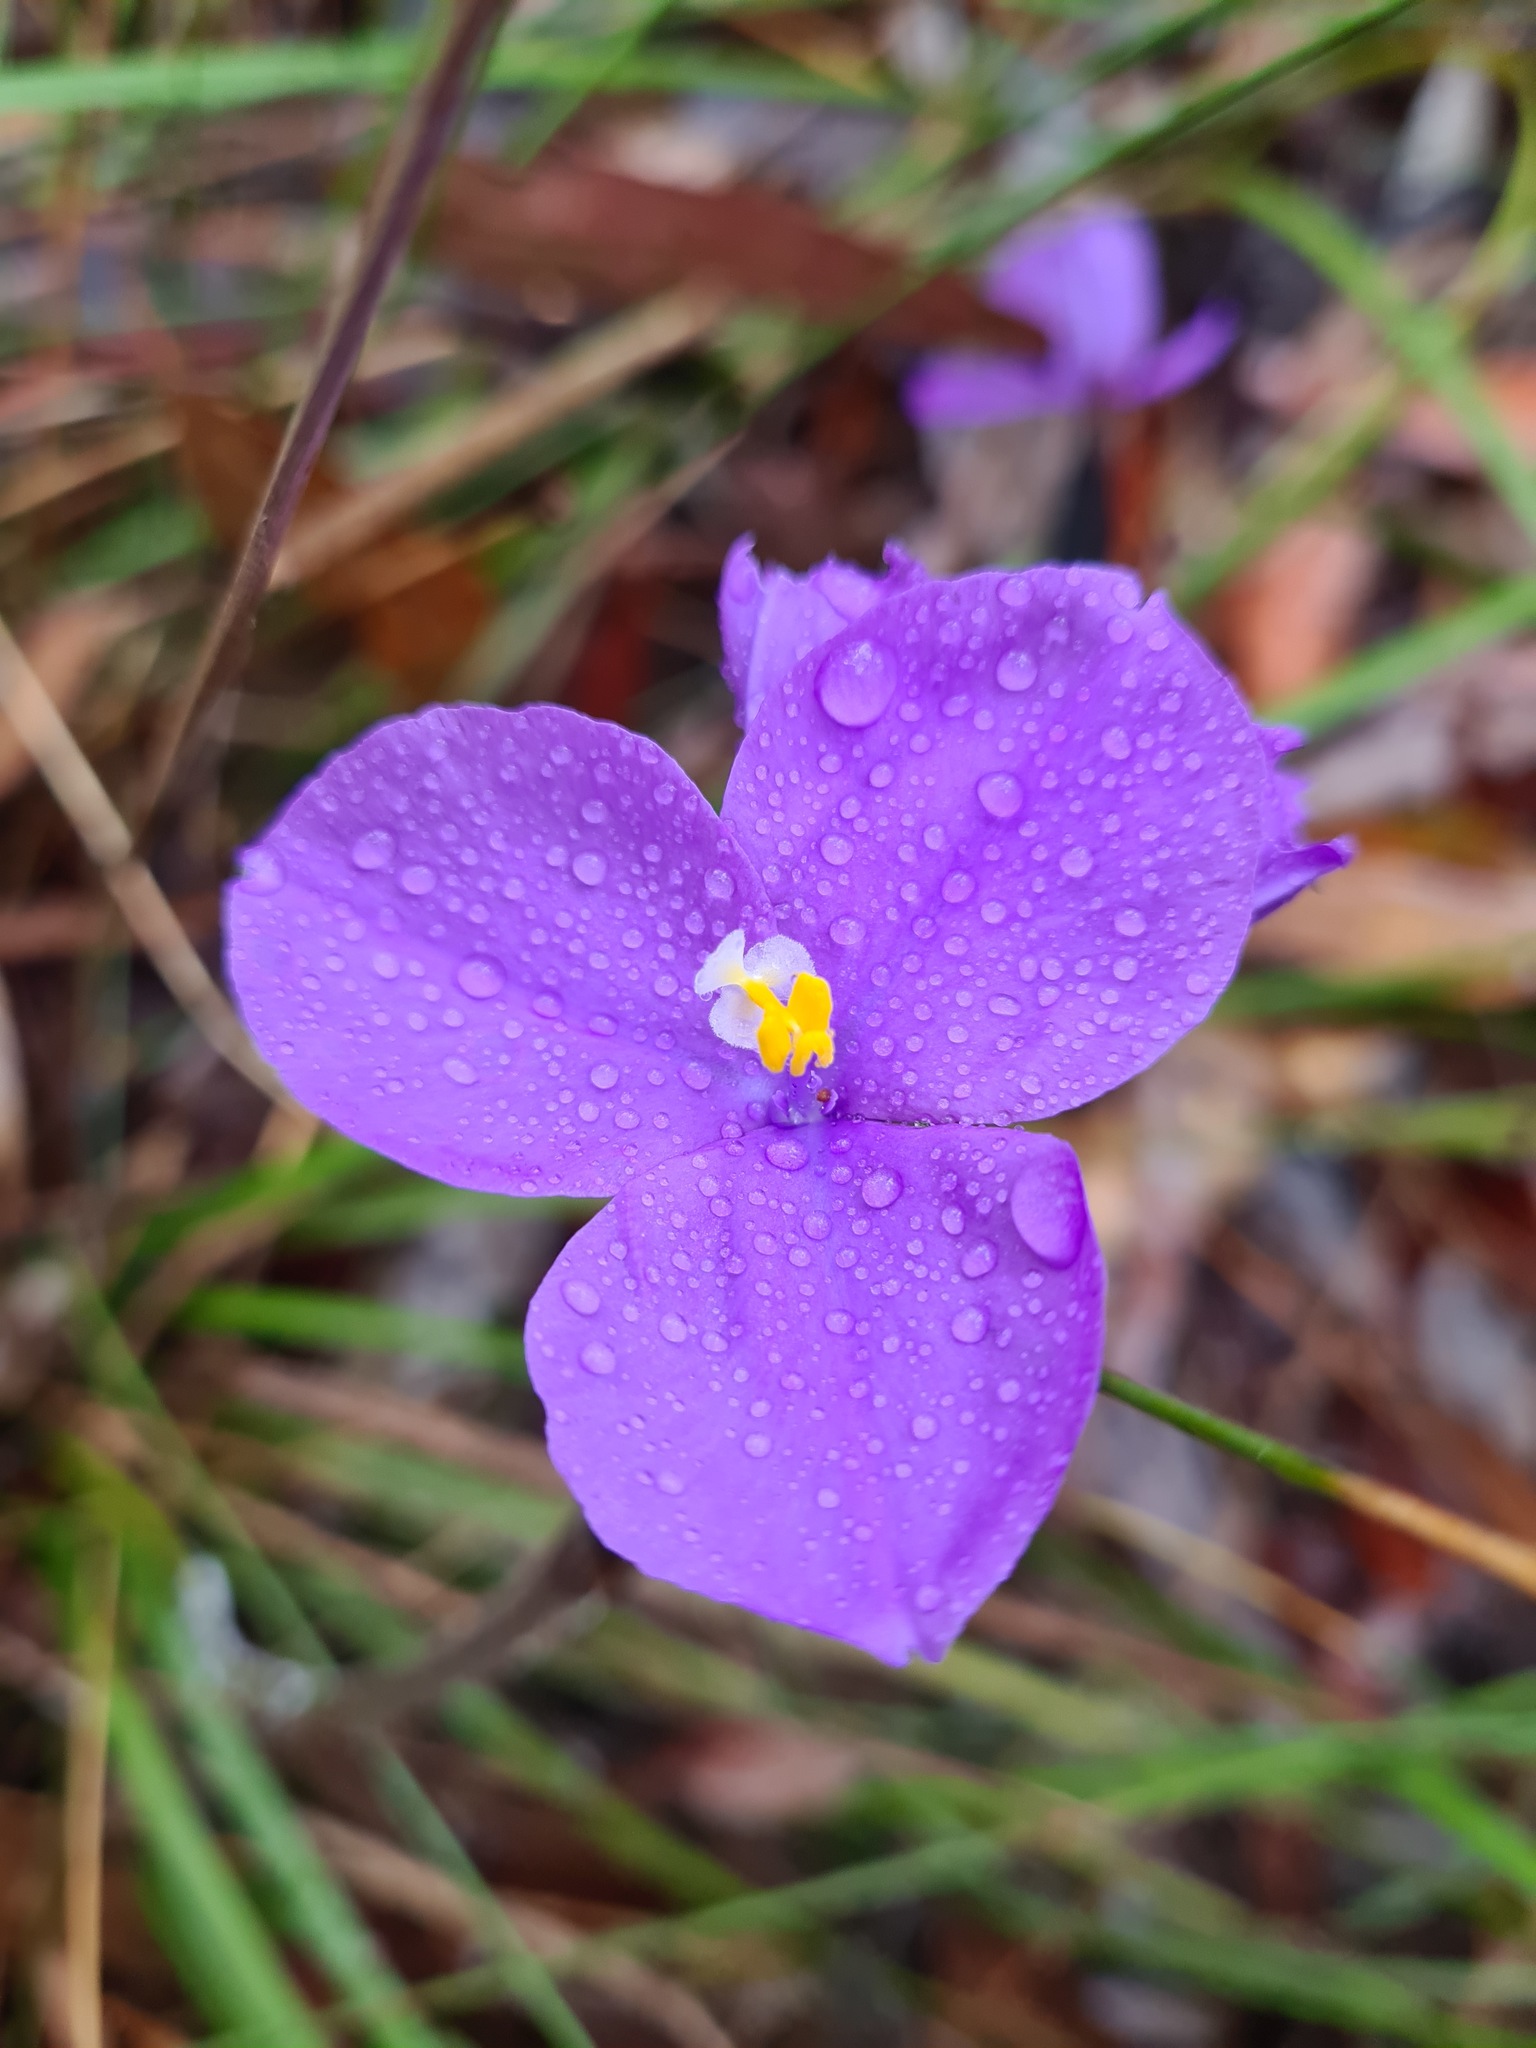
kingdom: Plantae
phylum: Tracheophyta
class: Liliopsida
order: Asparagales
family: Iridaceae
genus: Patersonia
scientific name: Patersonia sericea
